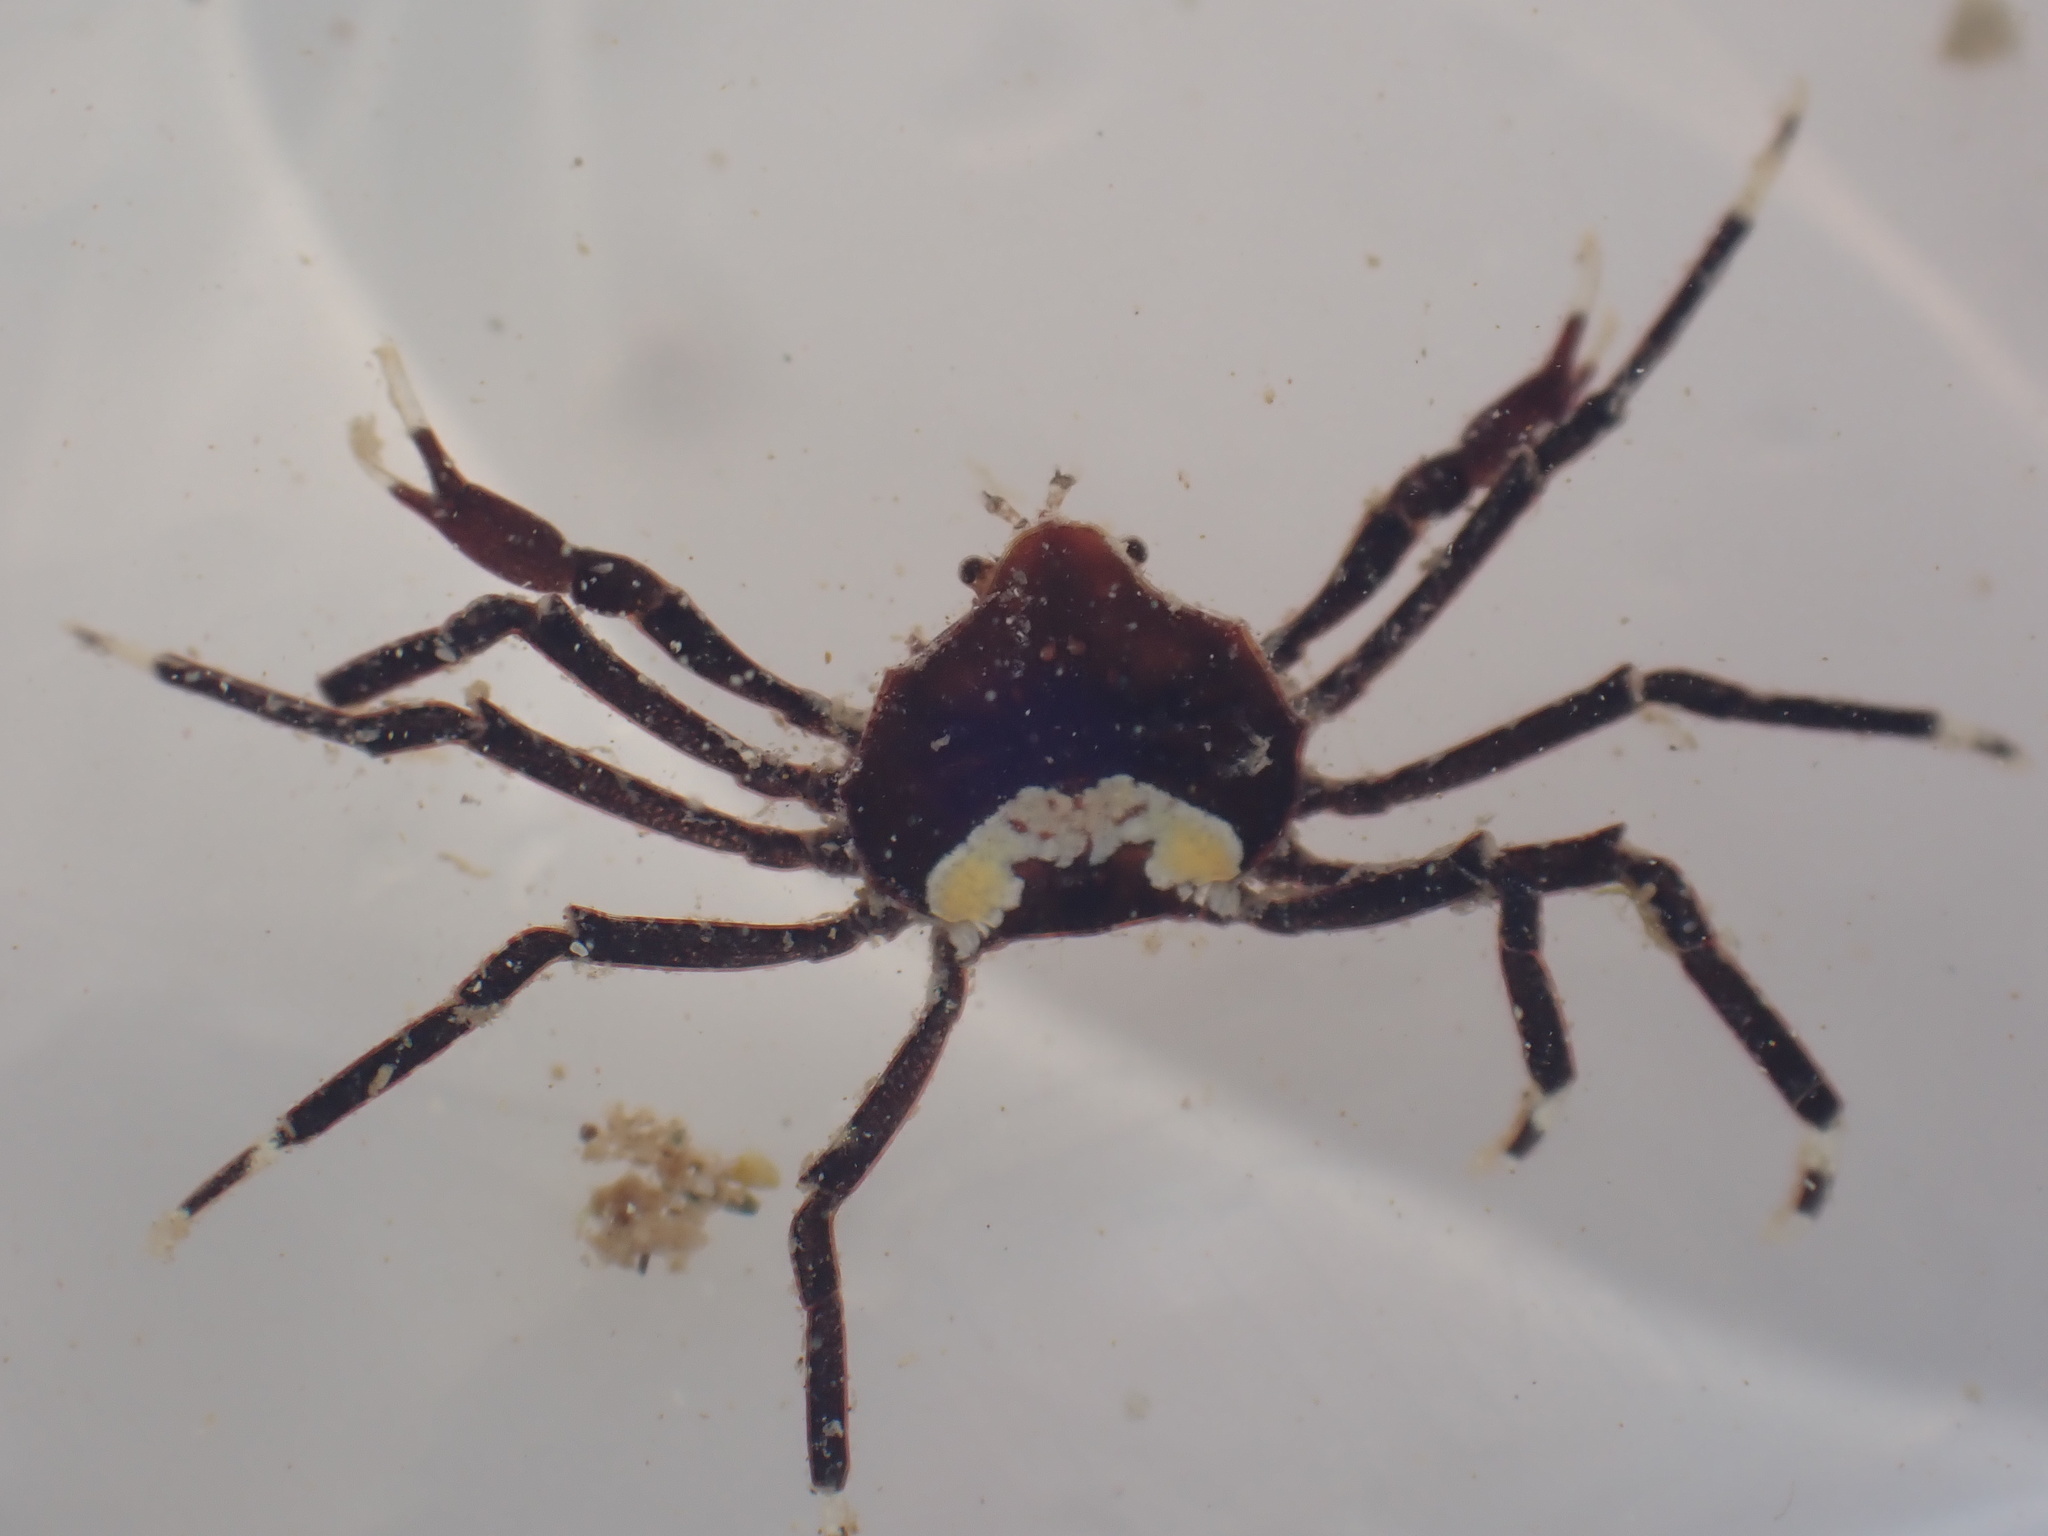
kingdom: Animalia
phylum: Arthropoda
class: Malacostraca
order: Decapoda
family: Hymenosomatidae
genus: Elamena
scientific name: Elamena producta
